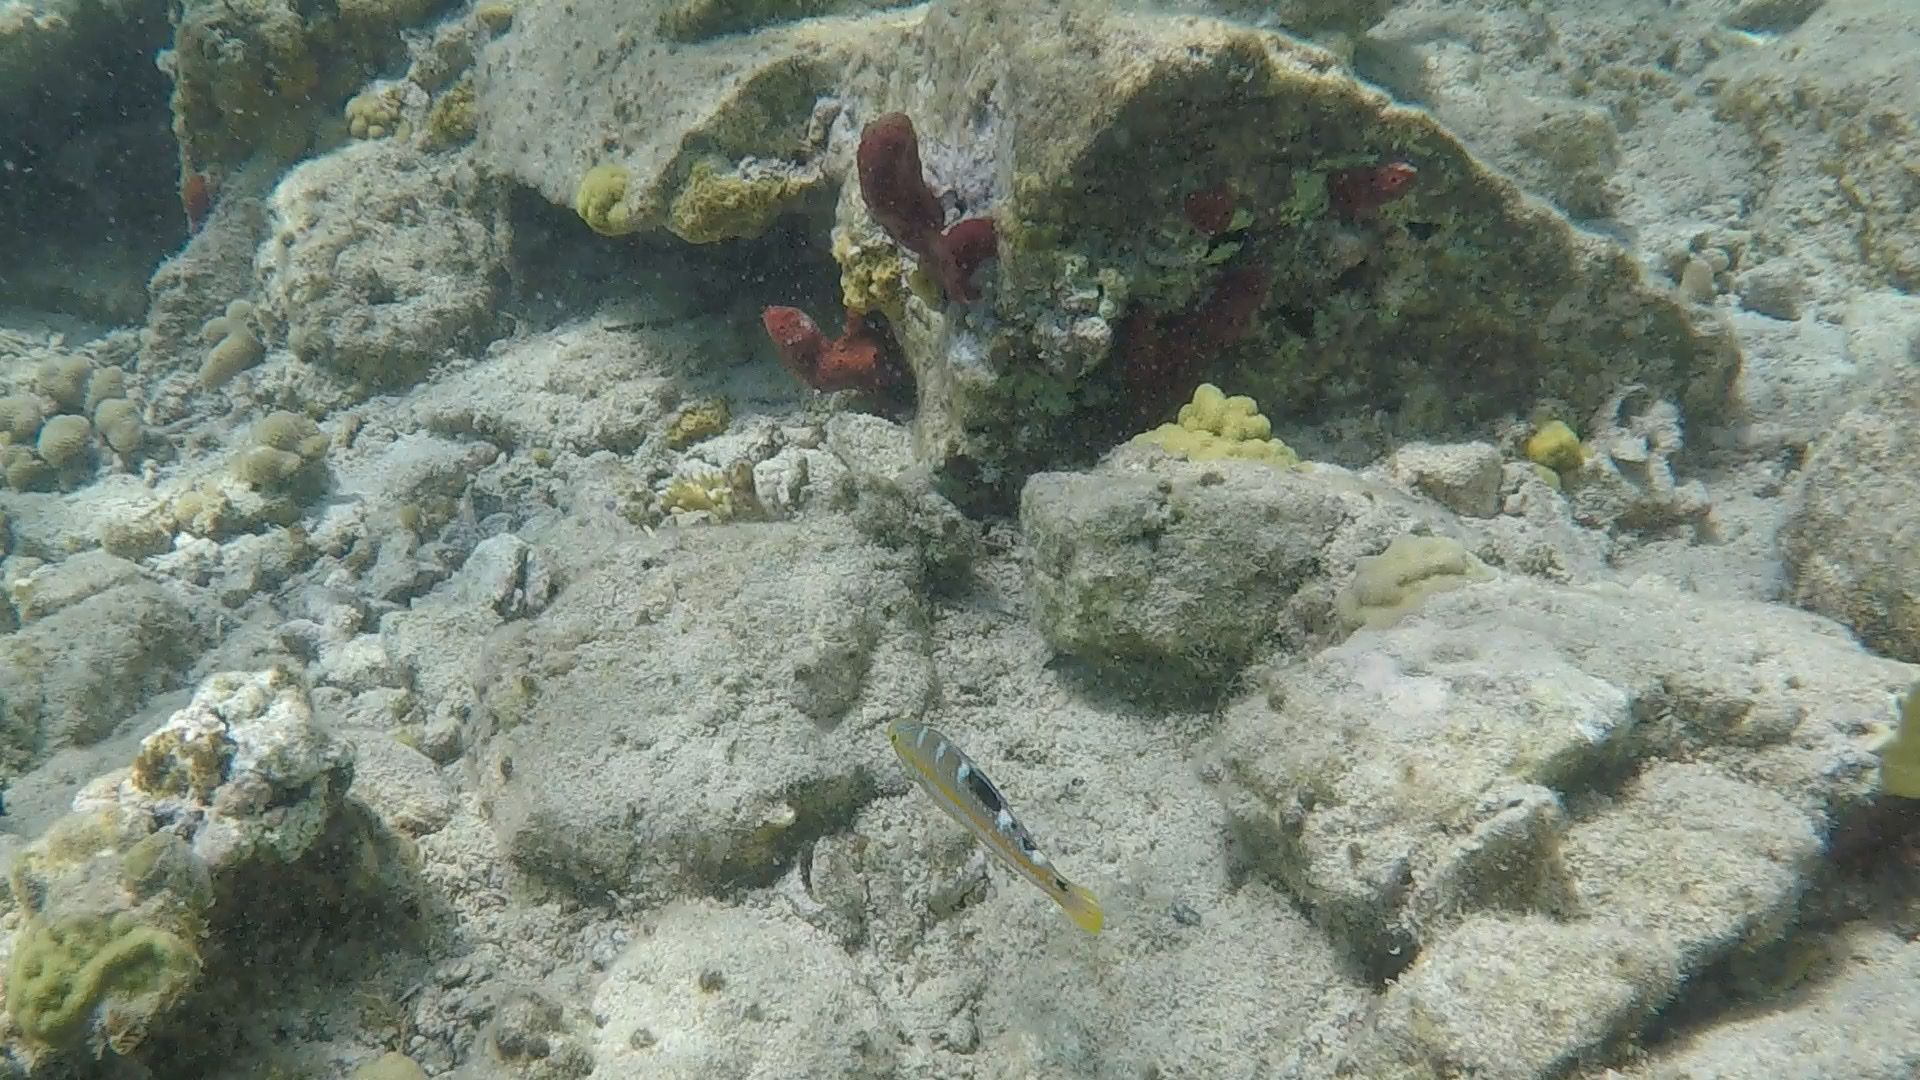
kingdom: Animalia
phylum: Chordata
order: Perciformes
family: Labridae
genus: Halichoeres
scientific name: Halichoeres radiatus
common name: Puddingwife
